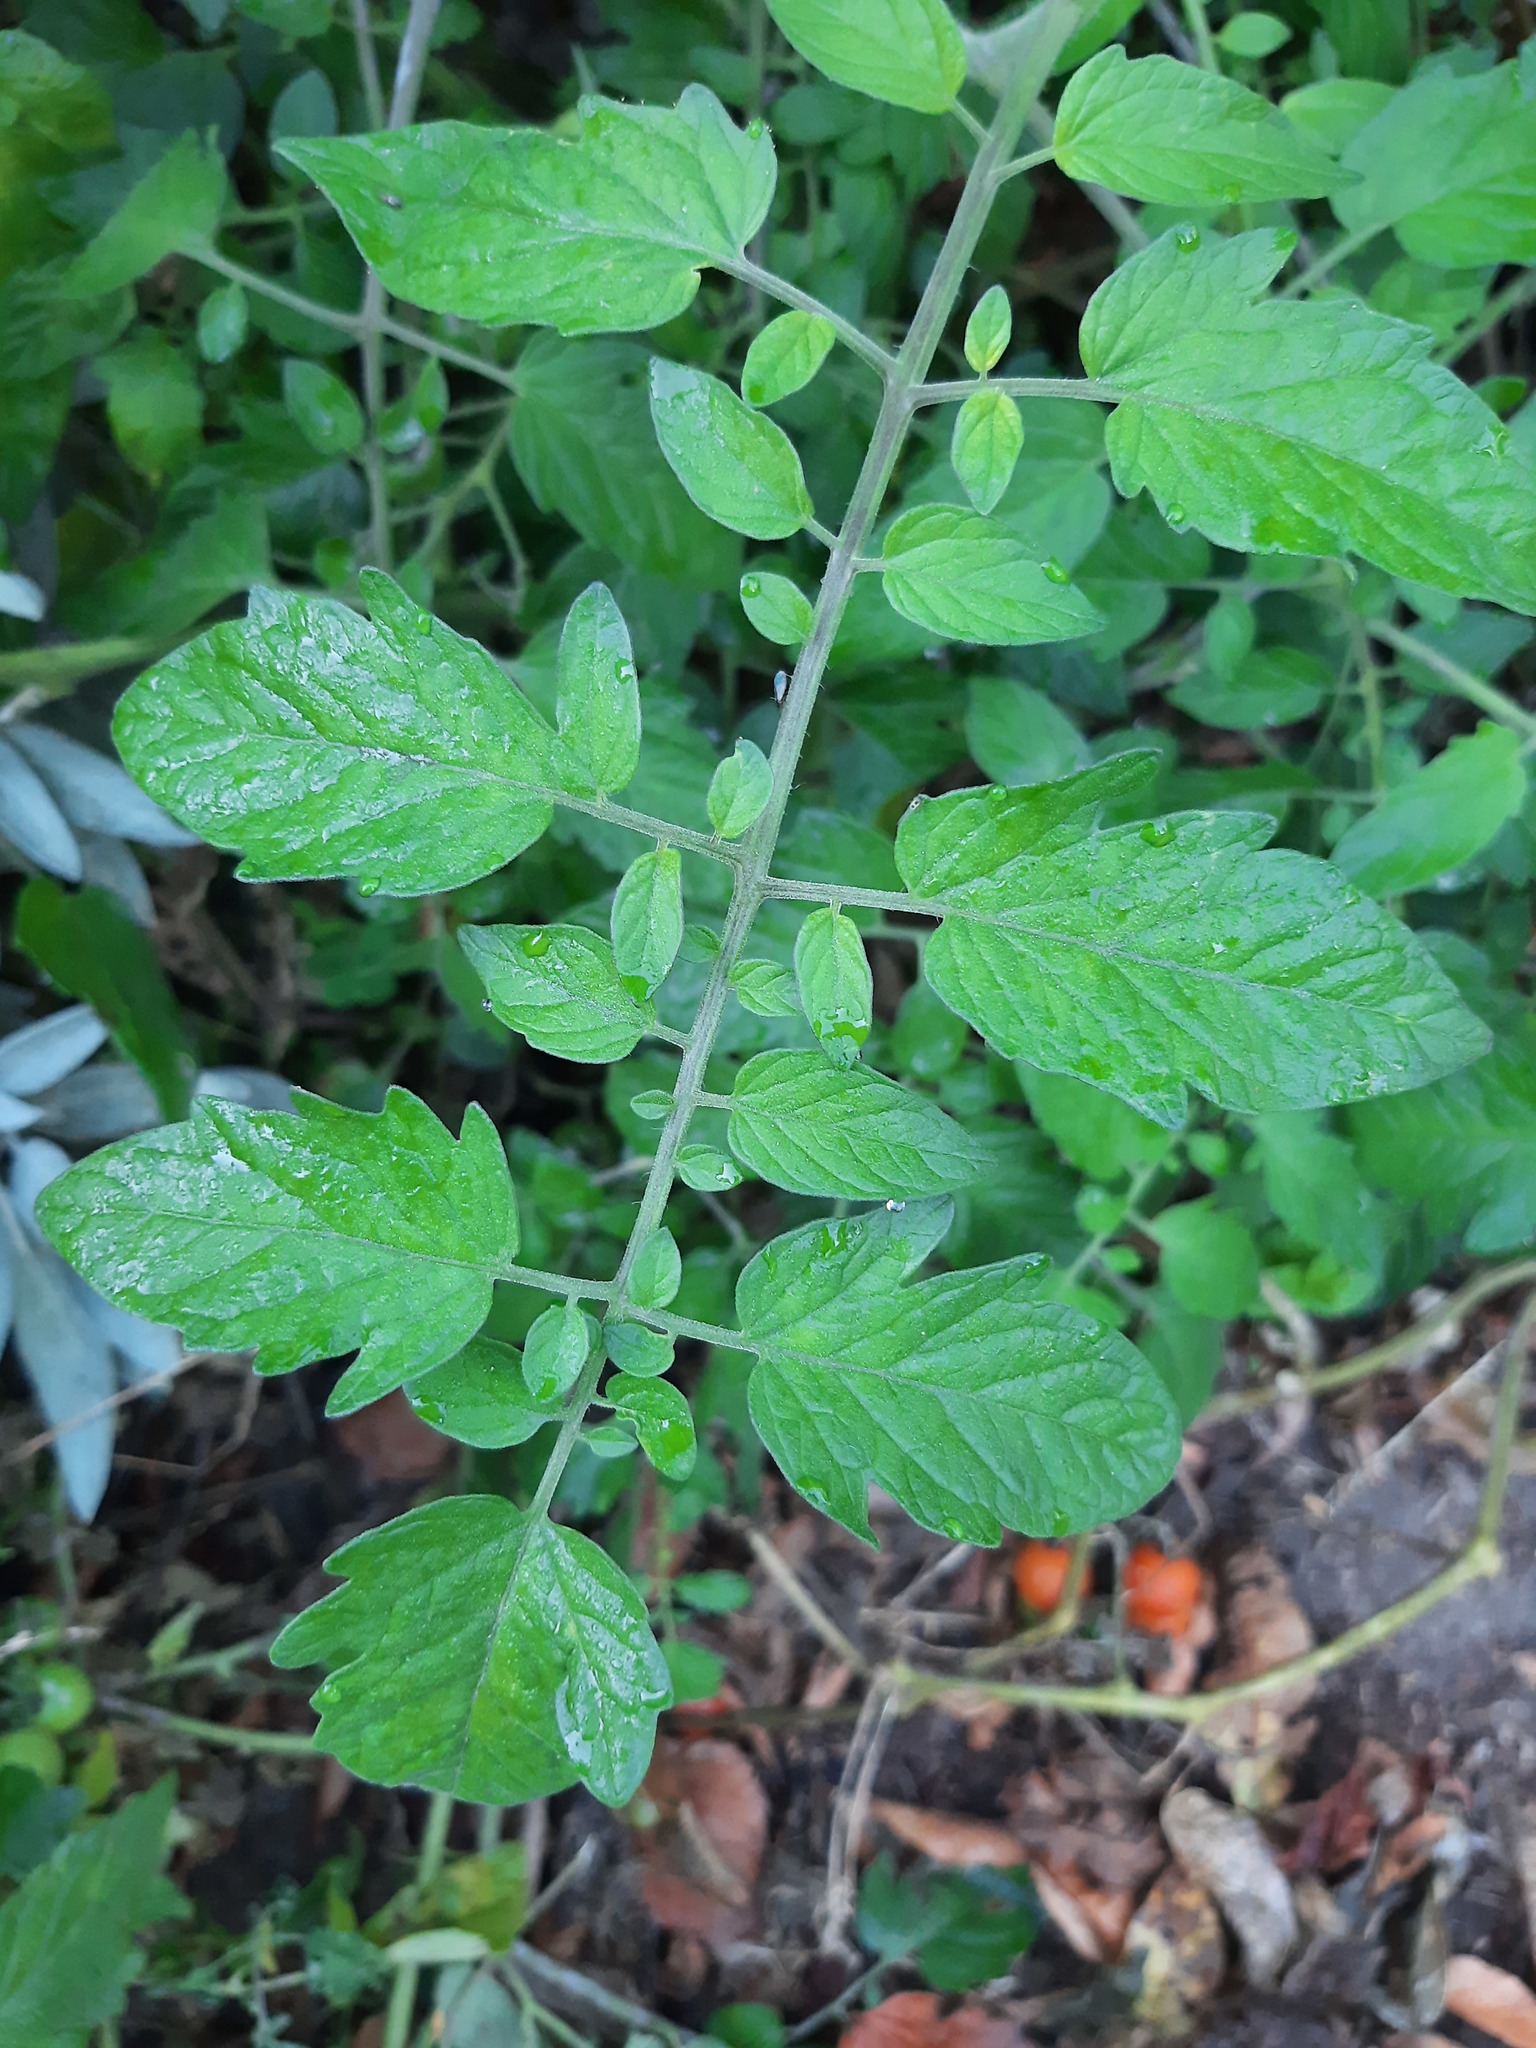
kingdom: Plantae
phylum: Tracheophyta
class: Magnoliopsida
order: Solanales
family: Solanaceae
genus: Solanum
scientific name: Solanum lycopersicum
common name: Garden tomato
